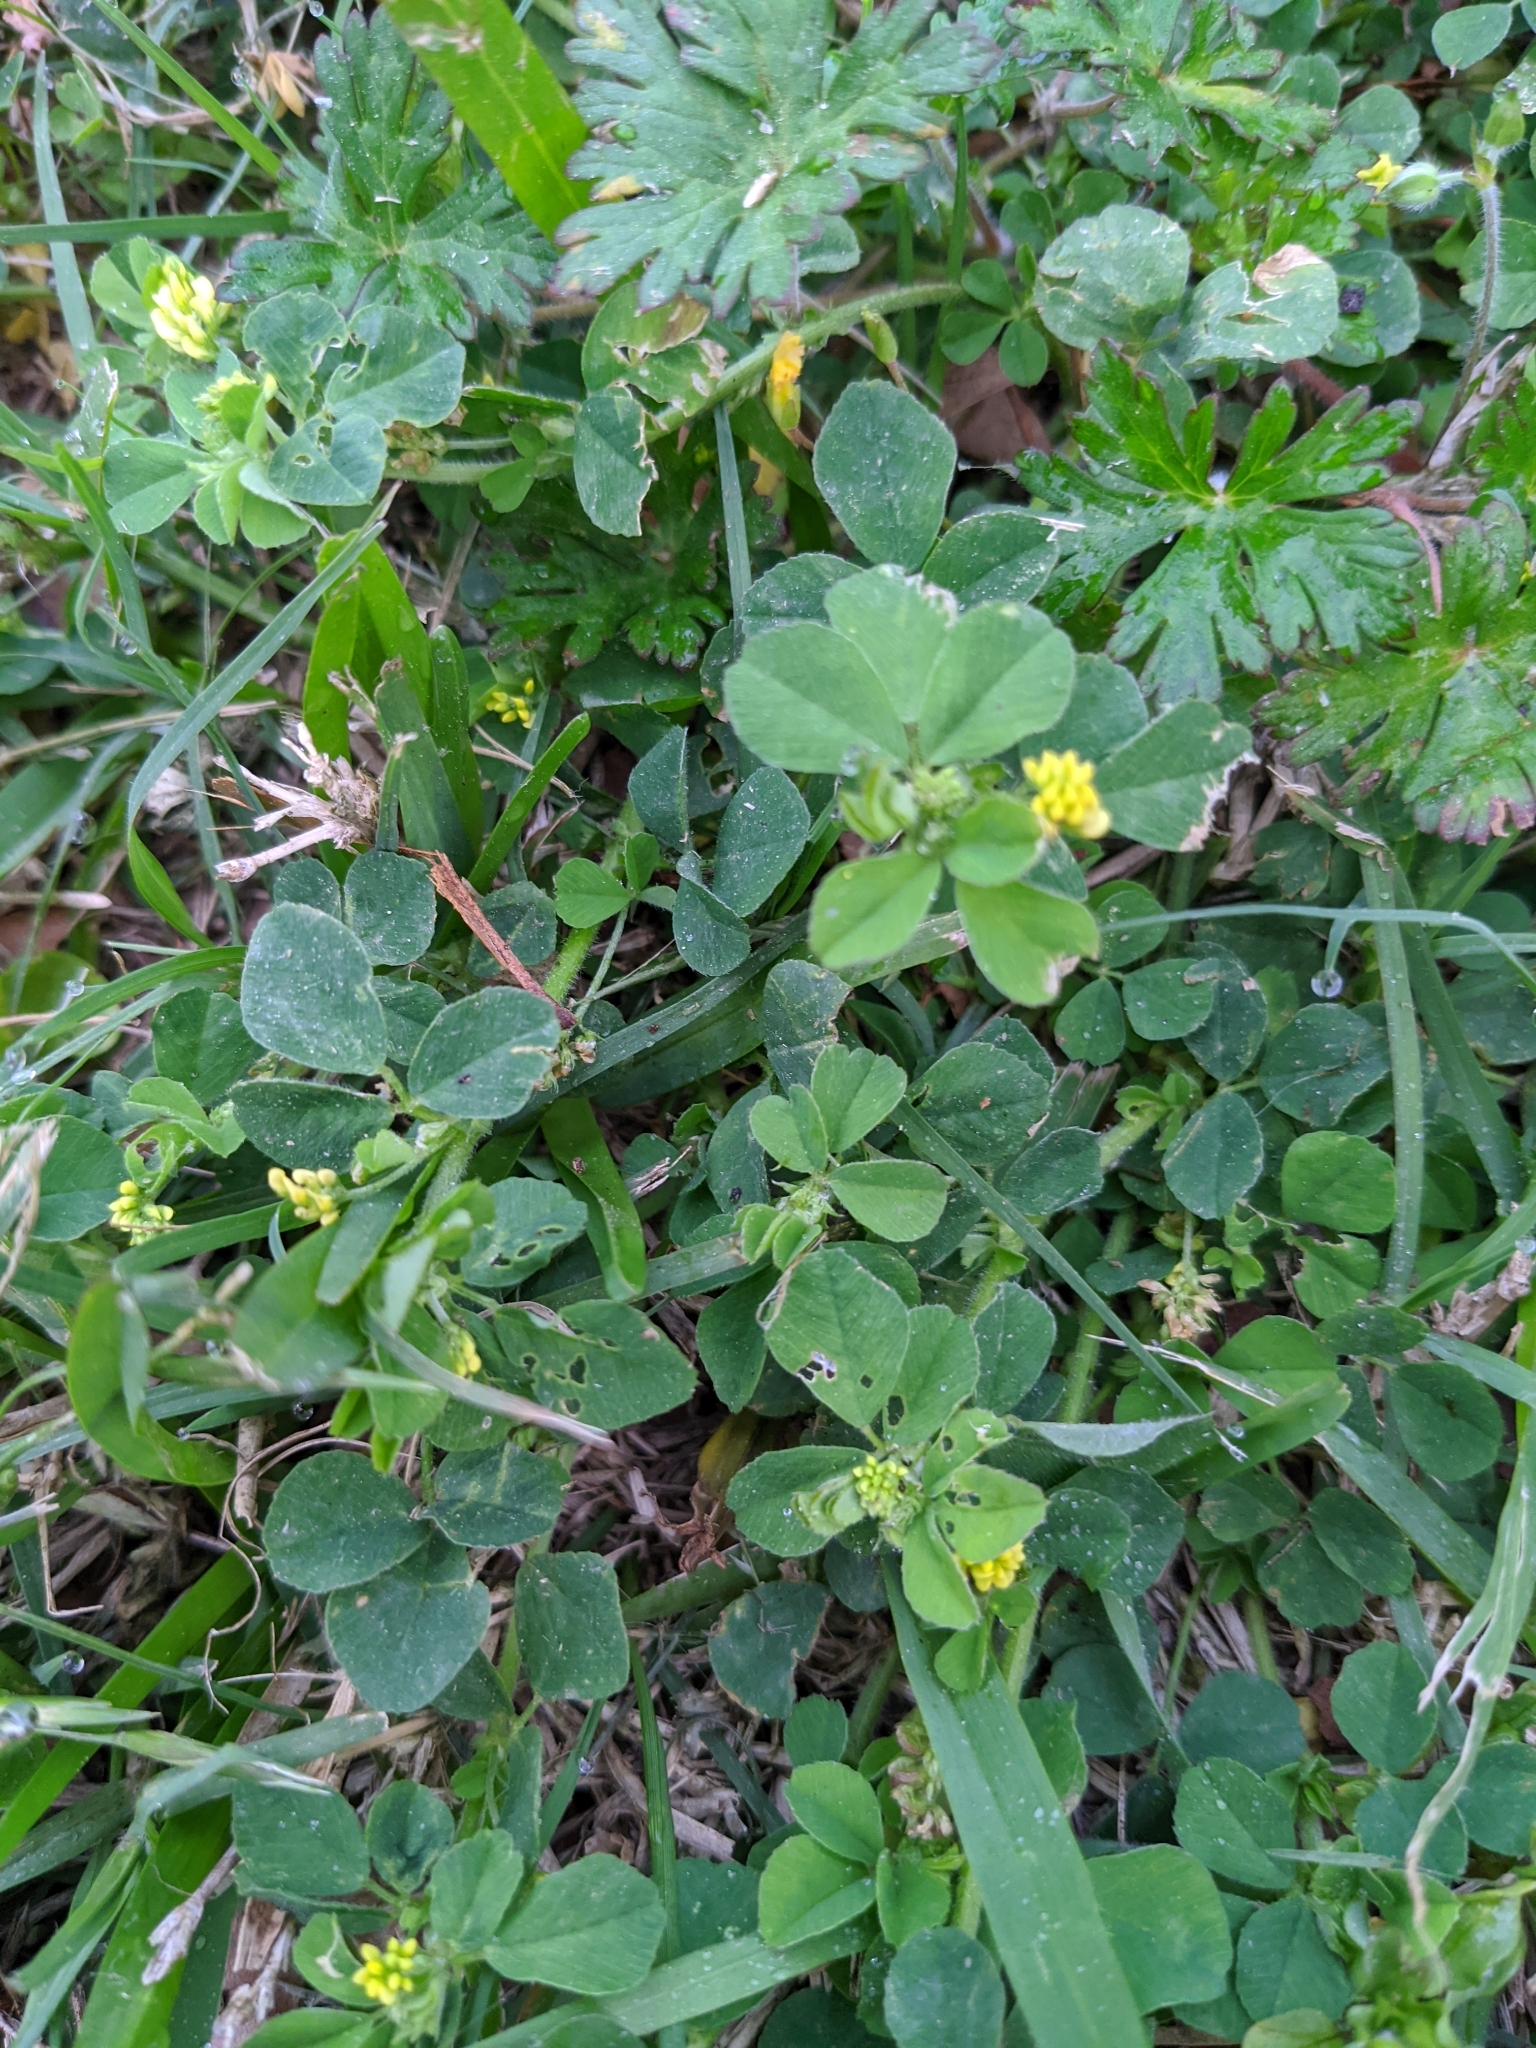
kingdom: Plantae
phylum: Tracheophyta
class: Magnoliopsida
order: Fabales
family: Fabaceae
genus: Medicago
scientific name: Medicago lupulina
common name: Black medick
